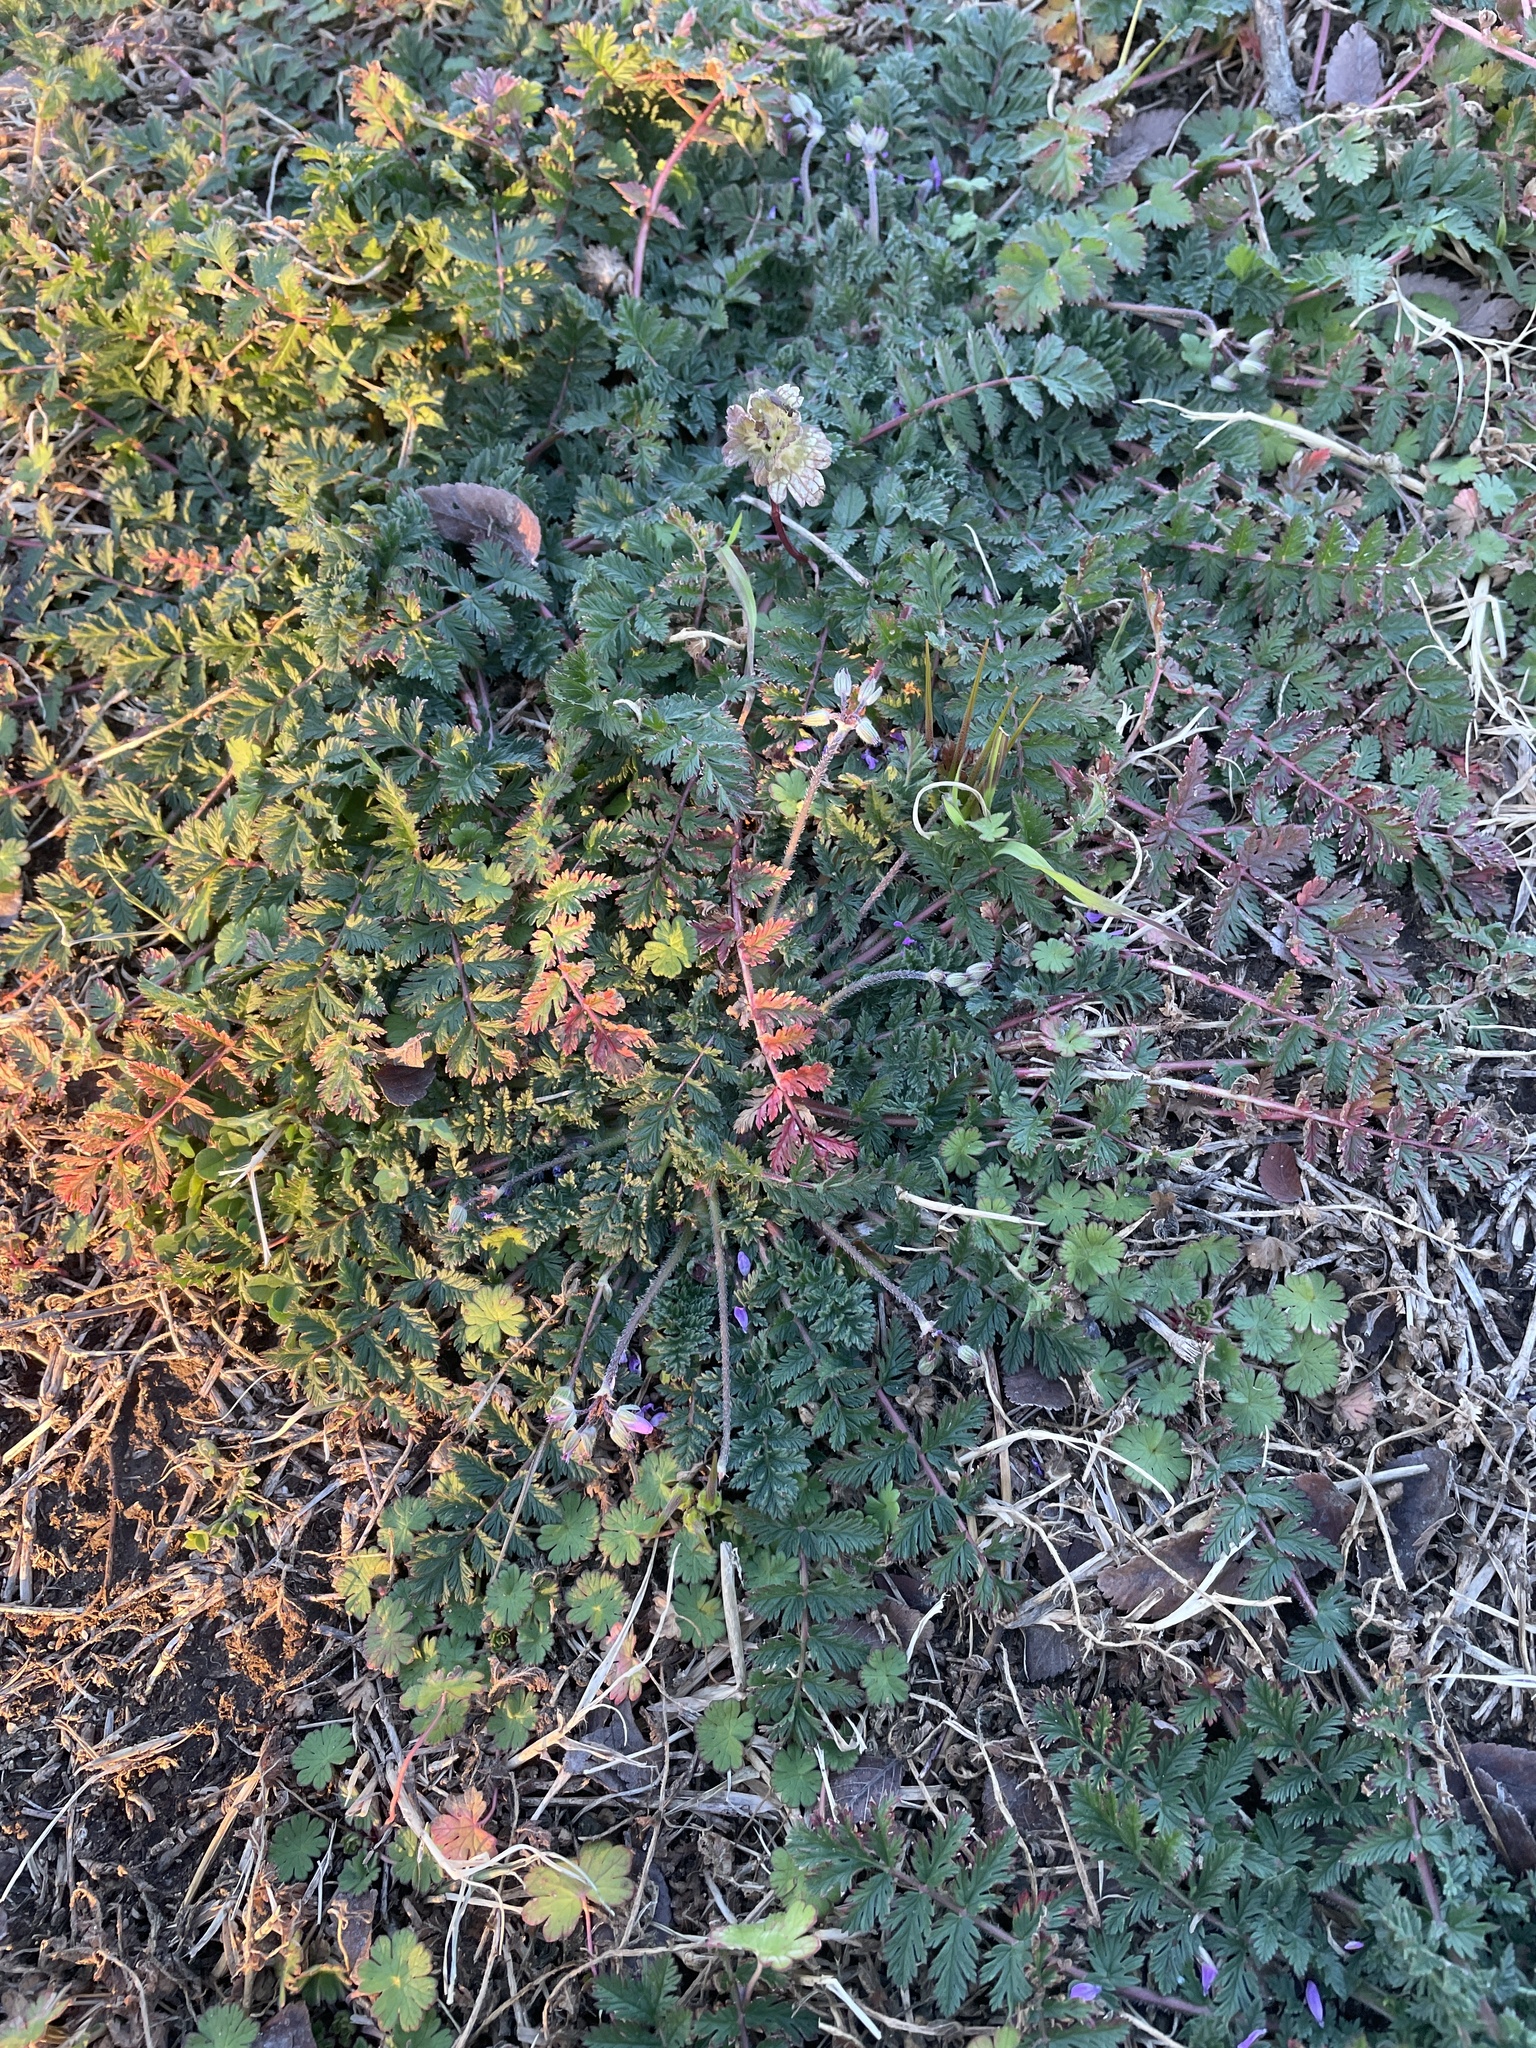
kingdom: Plantae
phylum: Tracheophyta
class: Magnoliopsida
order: Geraniales
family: Geraniaceae
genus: Erodium
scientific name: Erodium cicutarium
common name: Common stork's-bill
